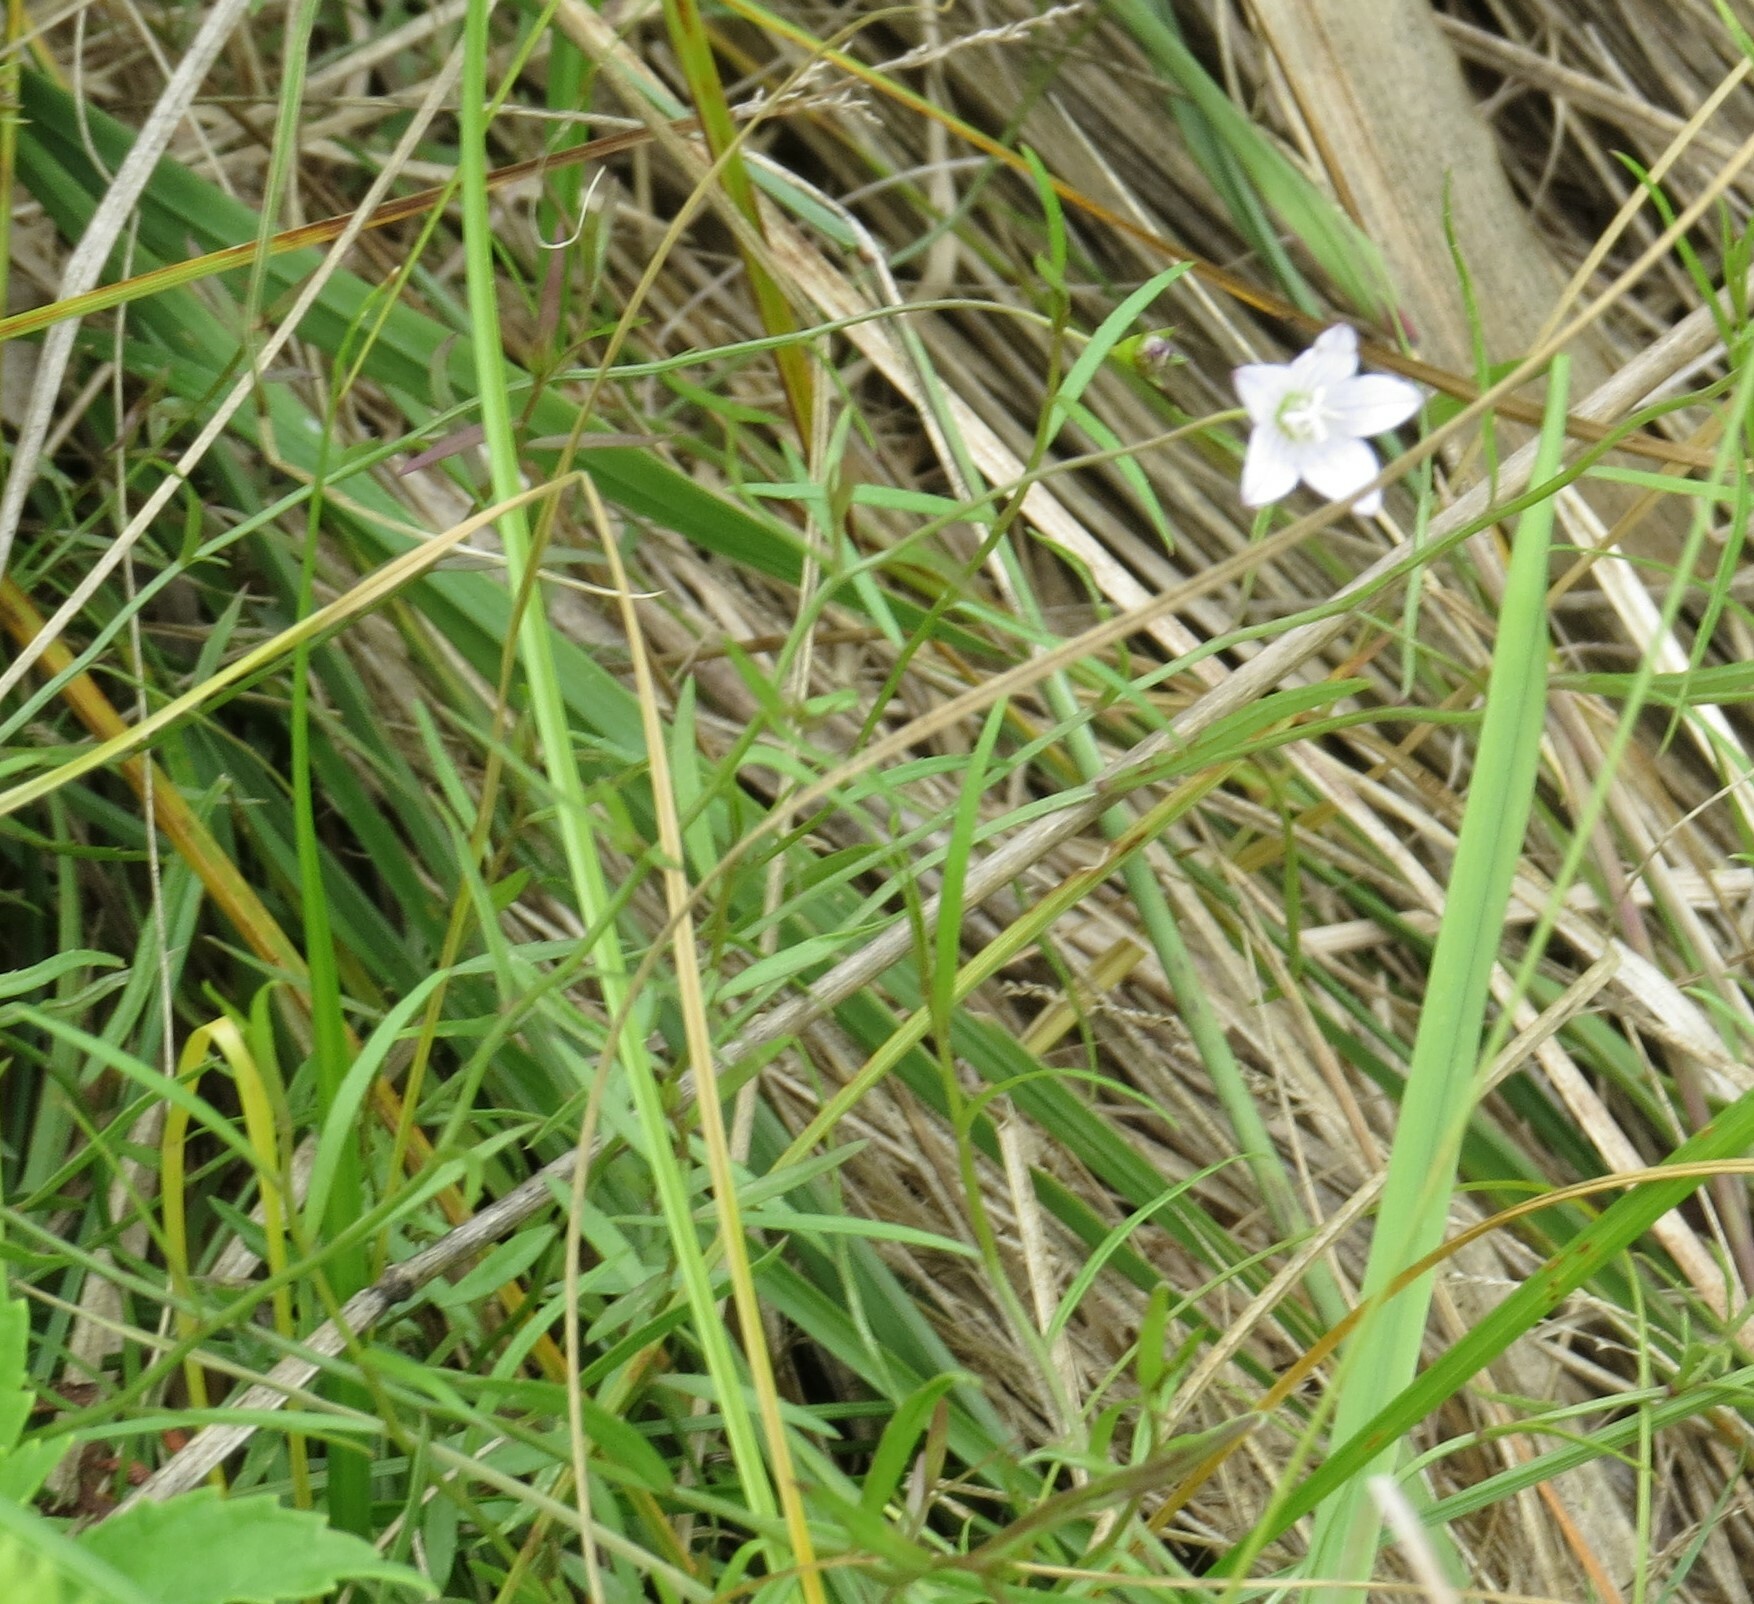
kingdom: Plantae
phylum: Tracheophyta
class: Magnoliopsida
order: Asterales
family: Campanulaceae
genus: Palustricodon
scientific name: Palustricodon aparinoides
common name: Bedstraw bellflower
